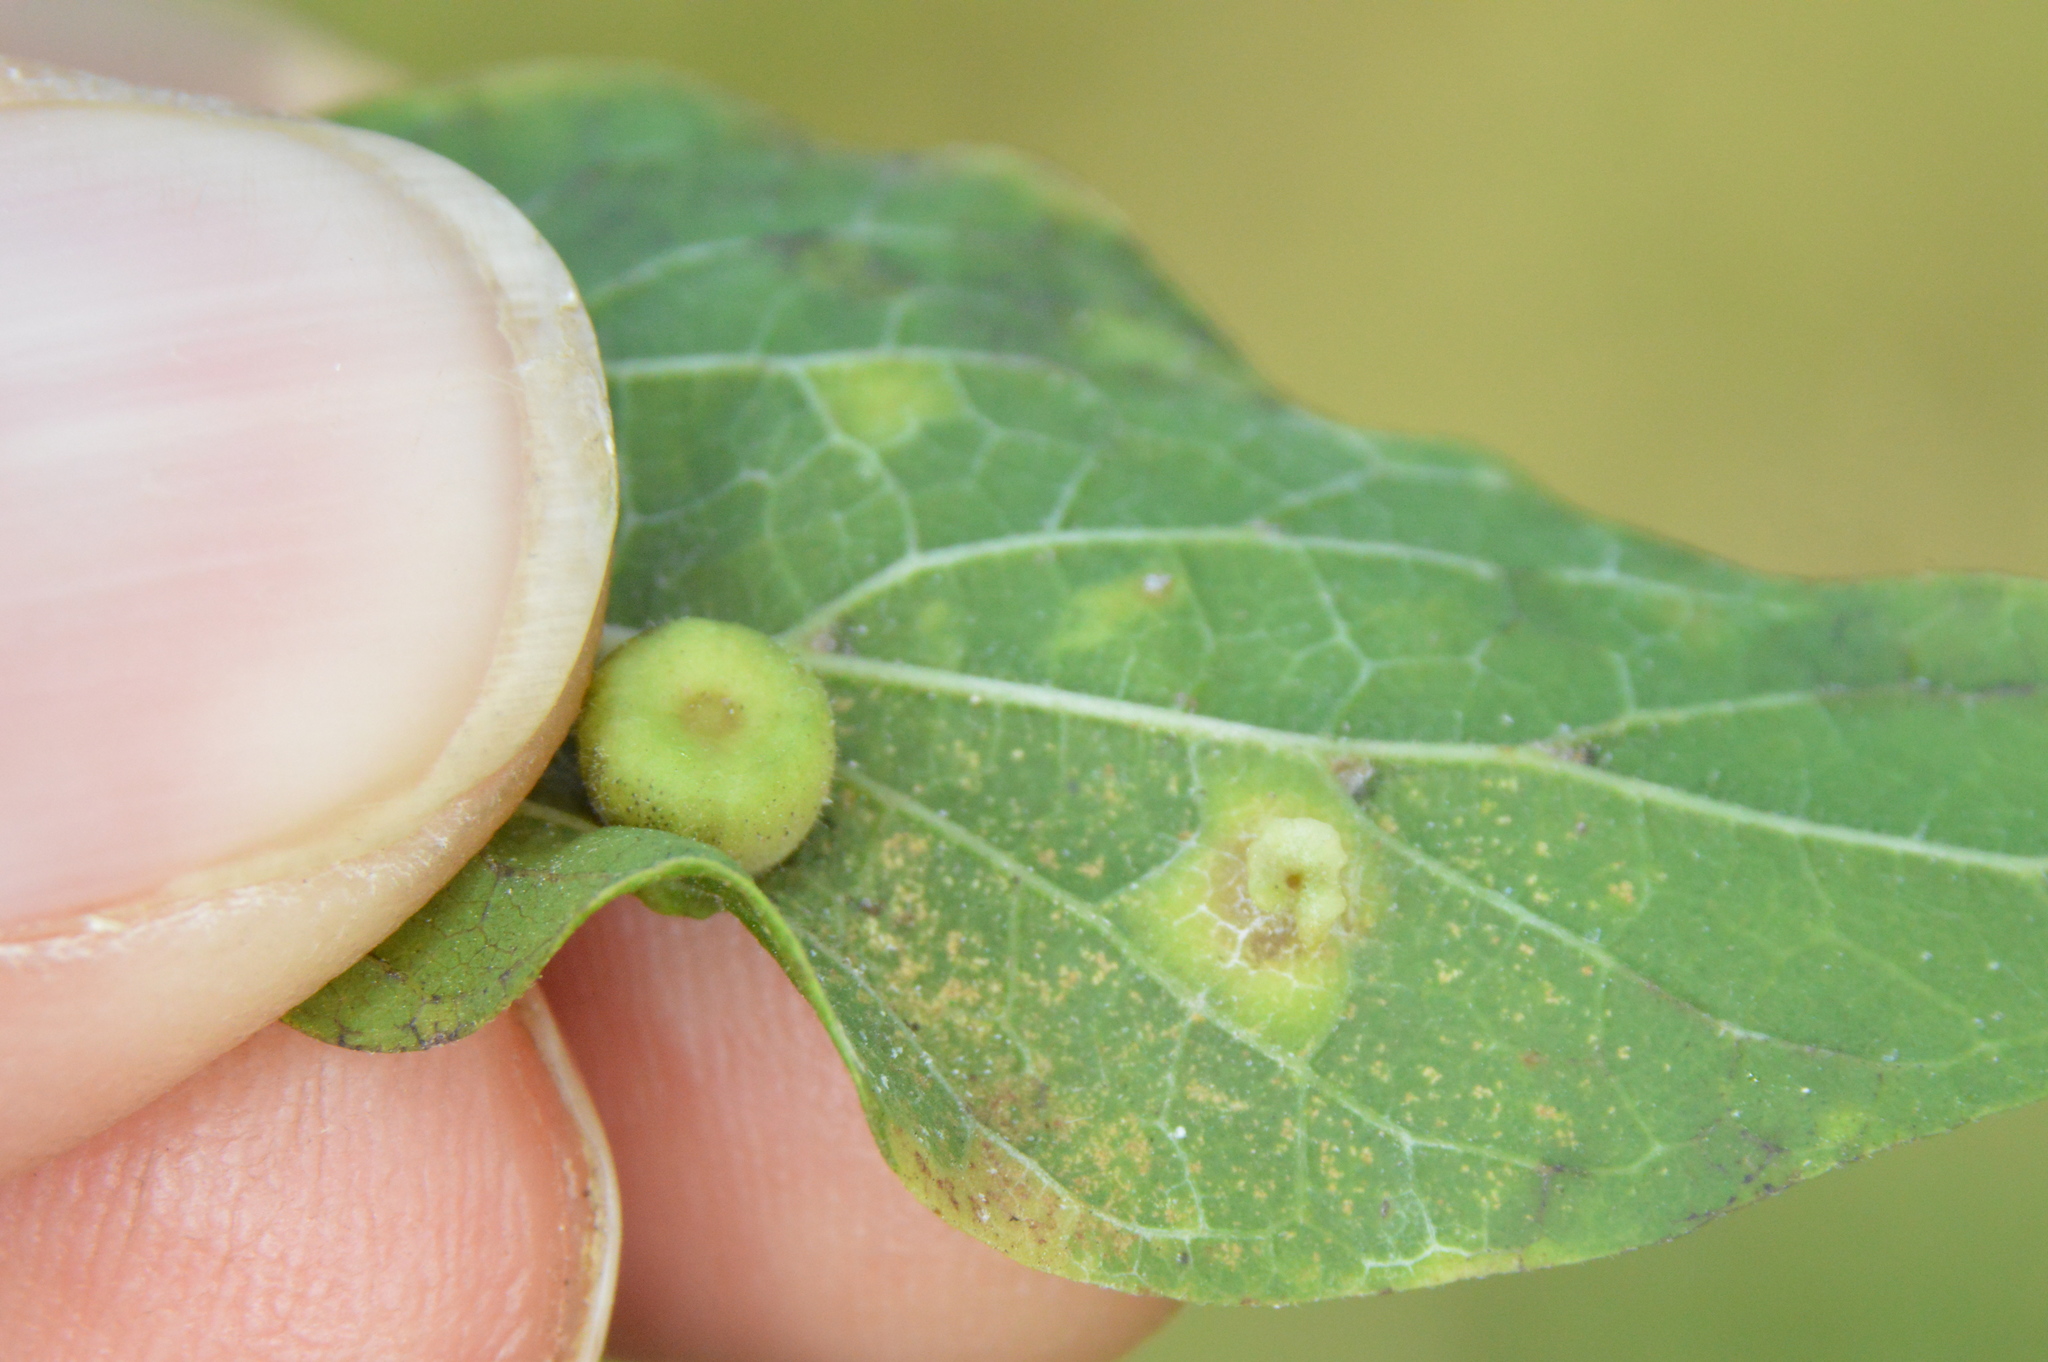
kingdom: Animalia
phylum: Arthropoda
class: Insecta
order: Hemiptera
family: Aphalaridae
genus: Pachypsylla
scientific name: Pachypsylla celtidisasterisca
